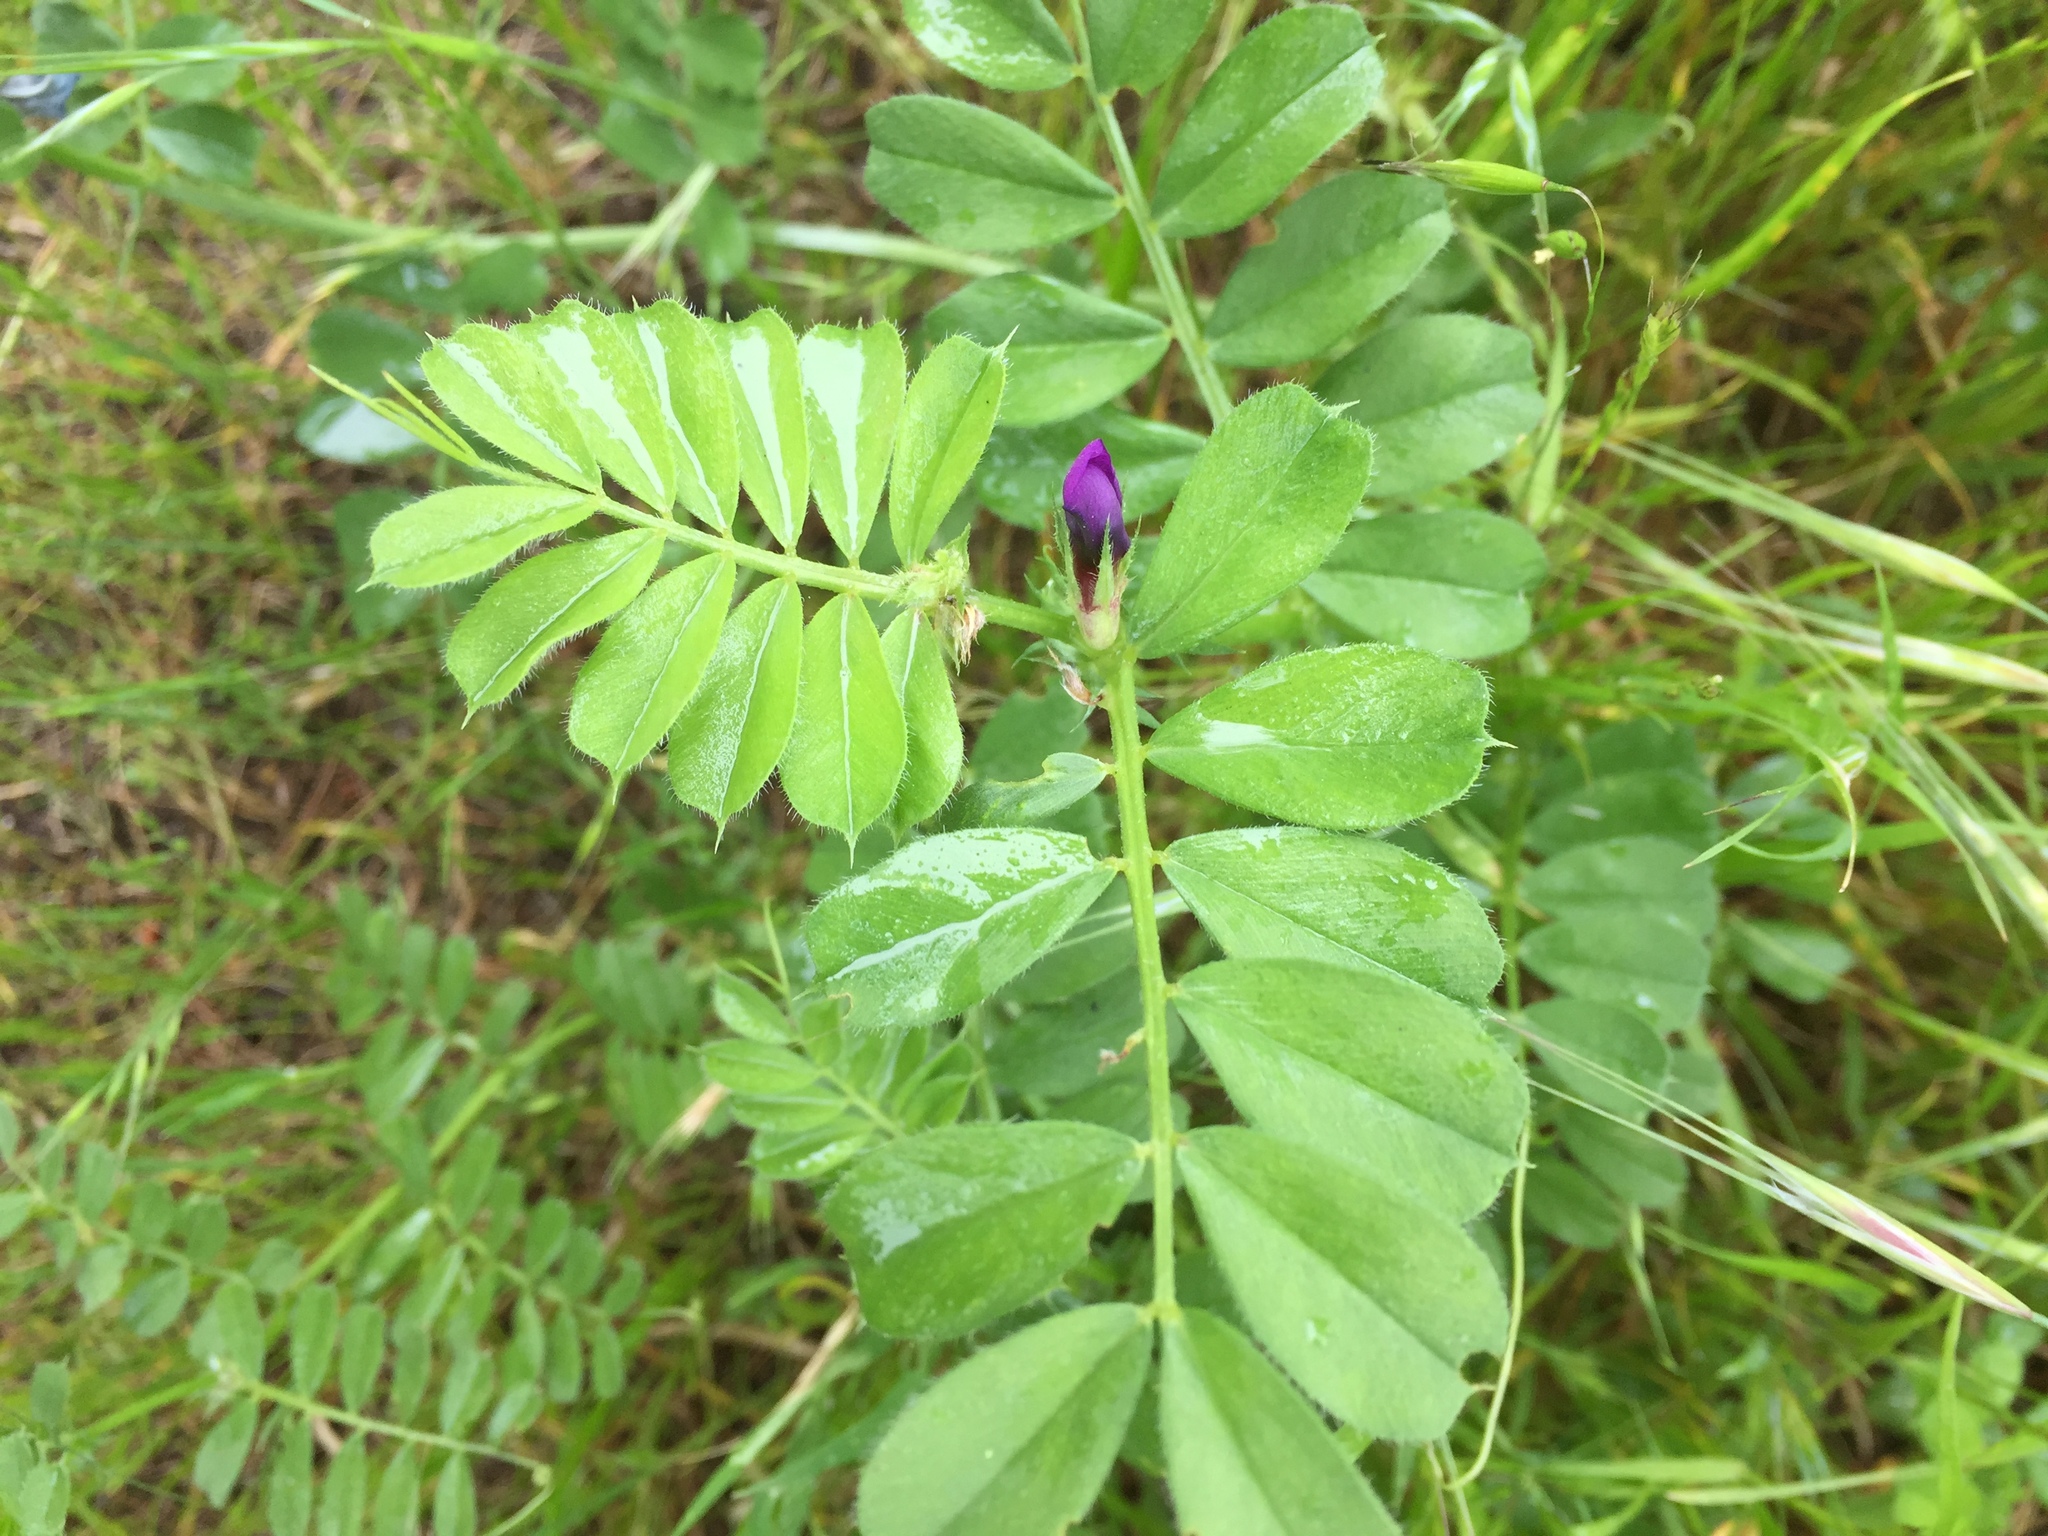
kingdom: Plantae
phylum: Tracheophyta
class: Magnoliopsida
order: Fabales
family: Fabaceae
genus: Vicia
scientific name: Vicia sativa
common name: Garden vetch
